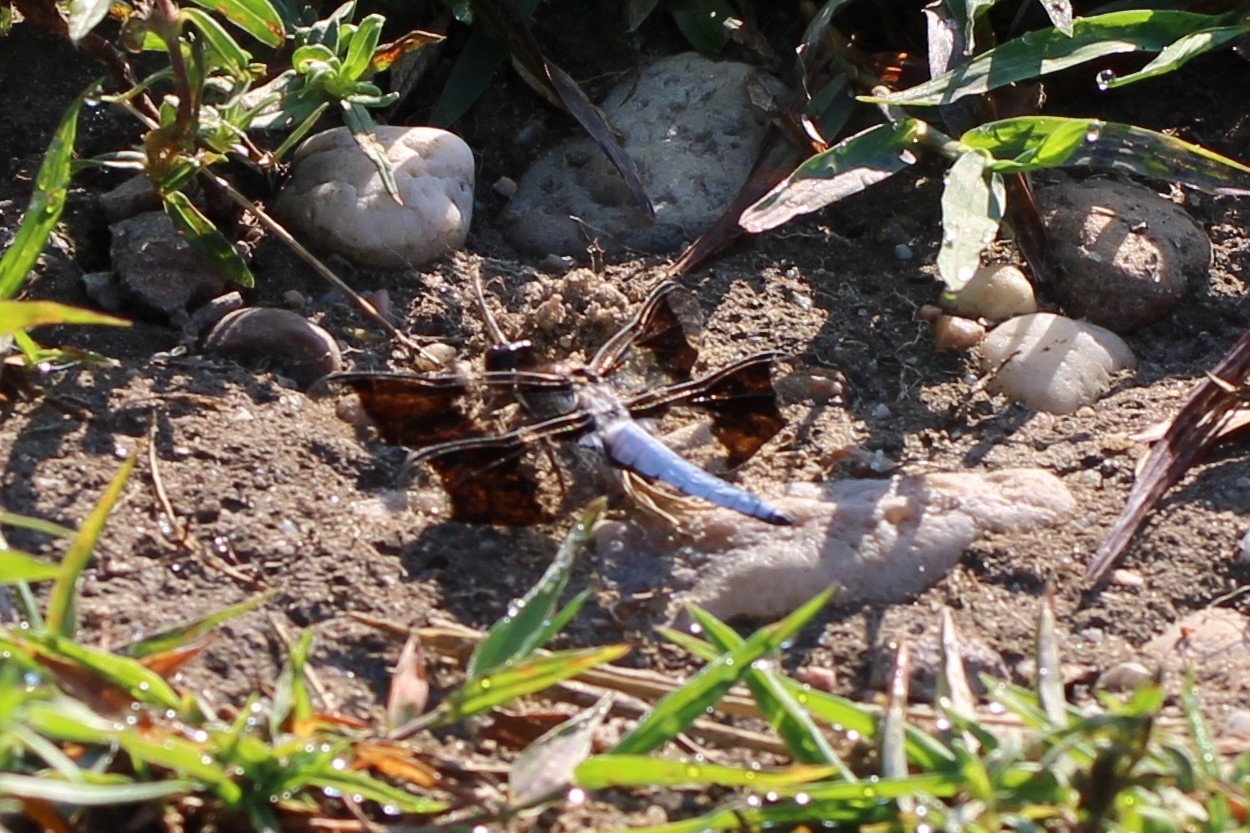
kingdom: Animalia
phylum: Arthropoda
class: Insecta
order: Odonata
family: Libellulidae
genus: Plathemis
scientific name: Plathemis lydia
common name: Common whitetail
